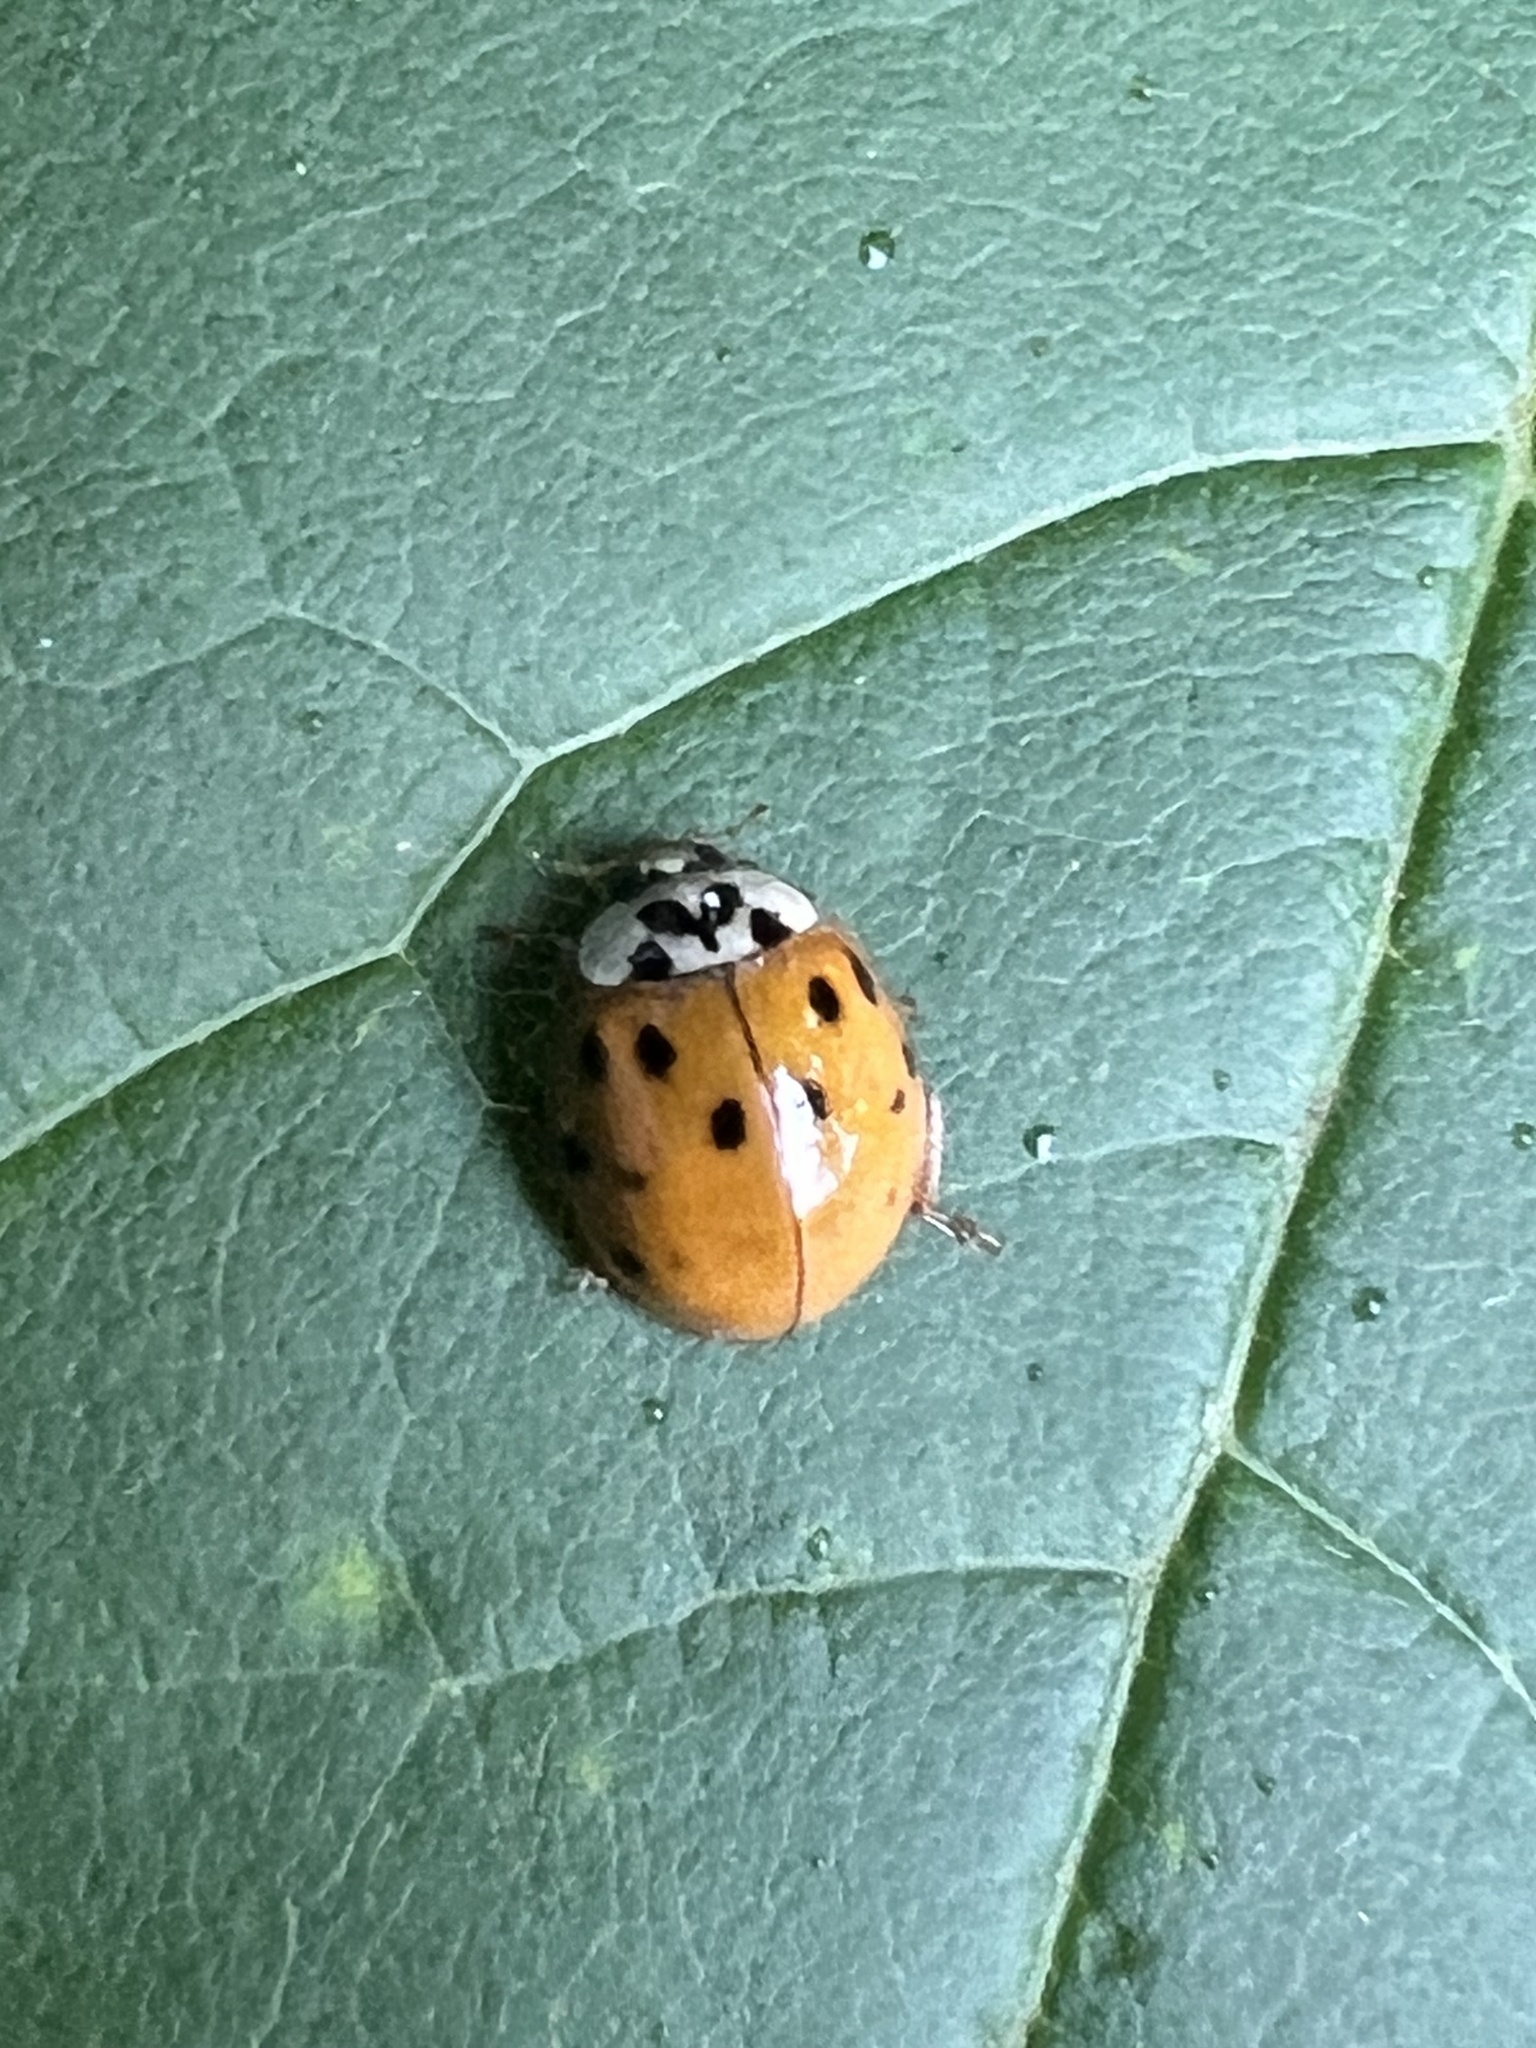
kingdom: Animalia
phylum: Arthropoda
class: Insecta
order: Coleoptera
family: Coccinellidae
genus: Harmonia
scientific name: Harmonia axyridis
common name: Harlequin ladybird
